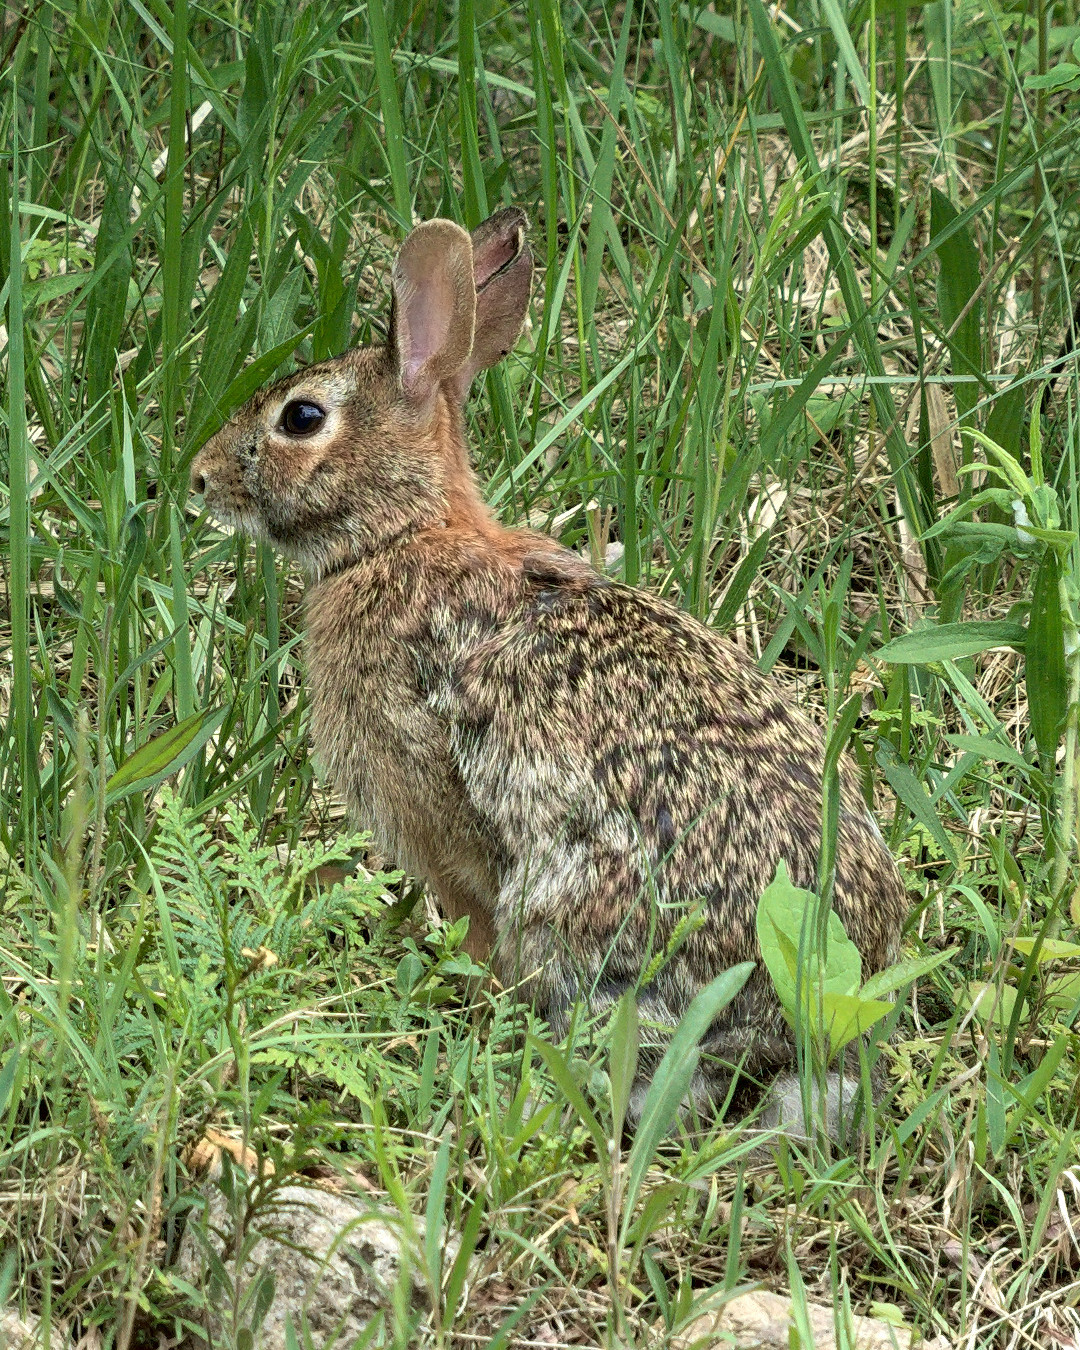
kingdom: Animalia
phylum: Chordata
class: Mammalia
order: Lagomorpha
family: Leporidae
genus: Sylvilagus
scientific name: Sylvilagus floridanus
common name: Eastern cottontail
